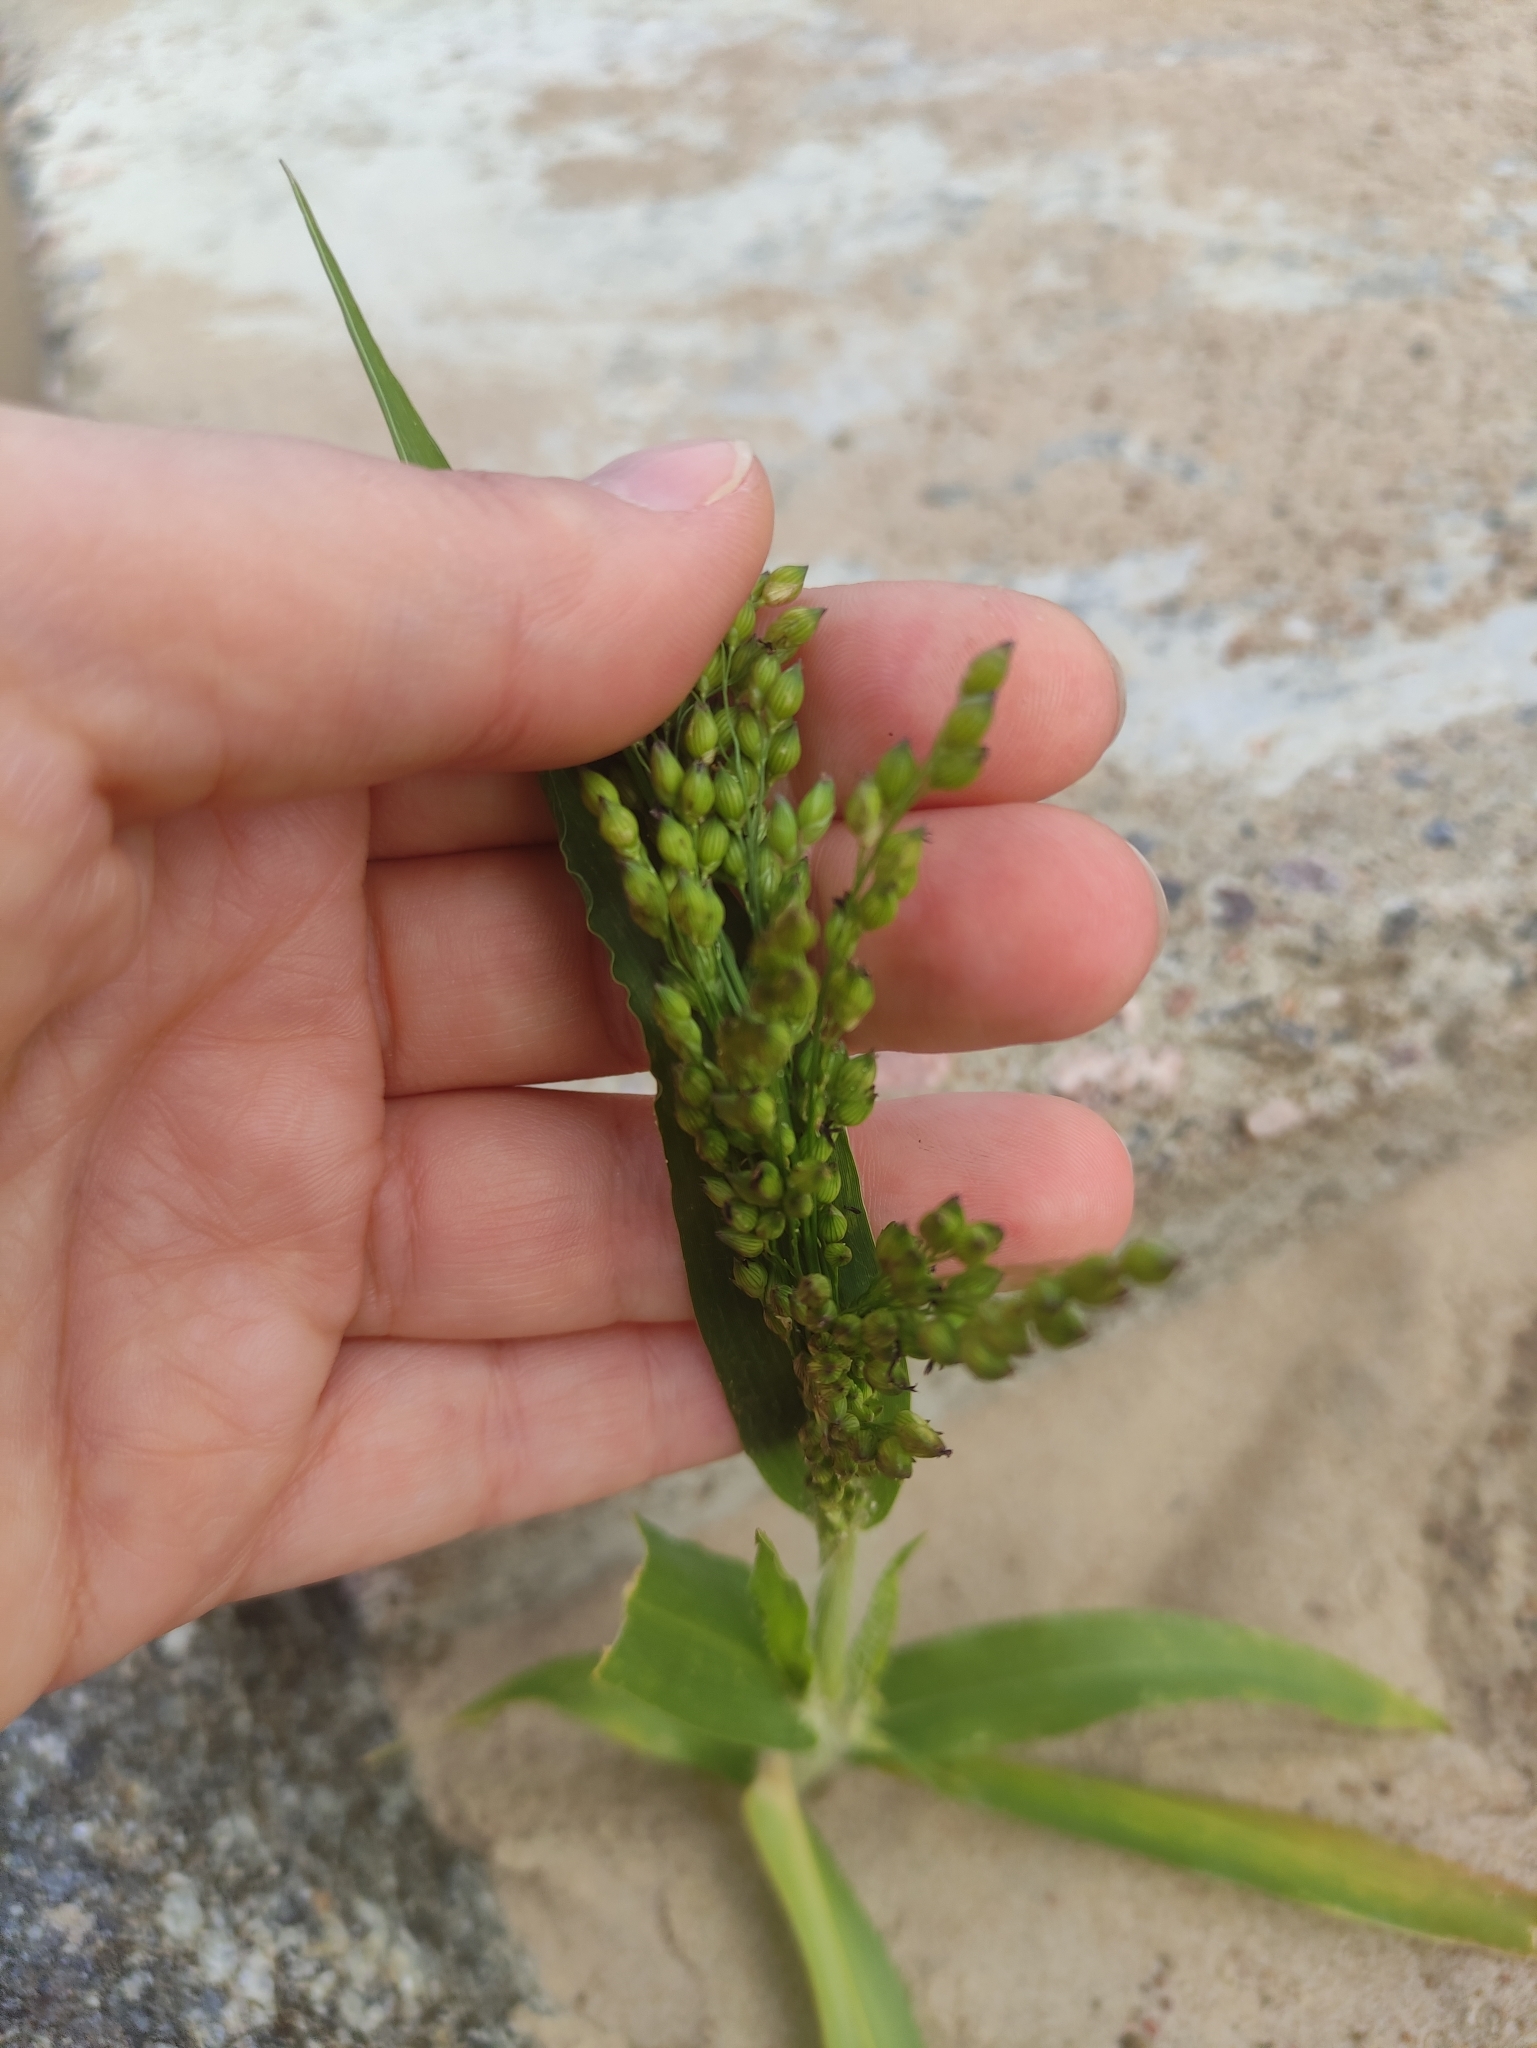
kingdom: Plantae
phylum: Tracheophyta
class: Liliopsida
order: Poales
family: Poaceae
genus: Panicum
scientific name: Panicum miliaceum
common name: Common millet
